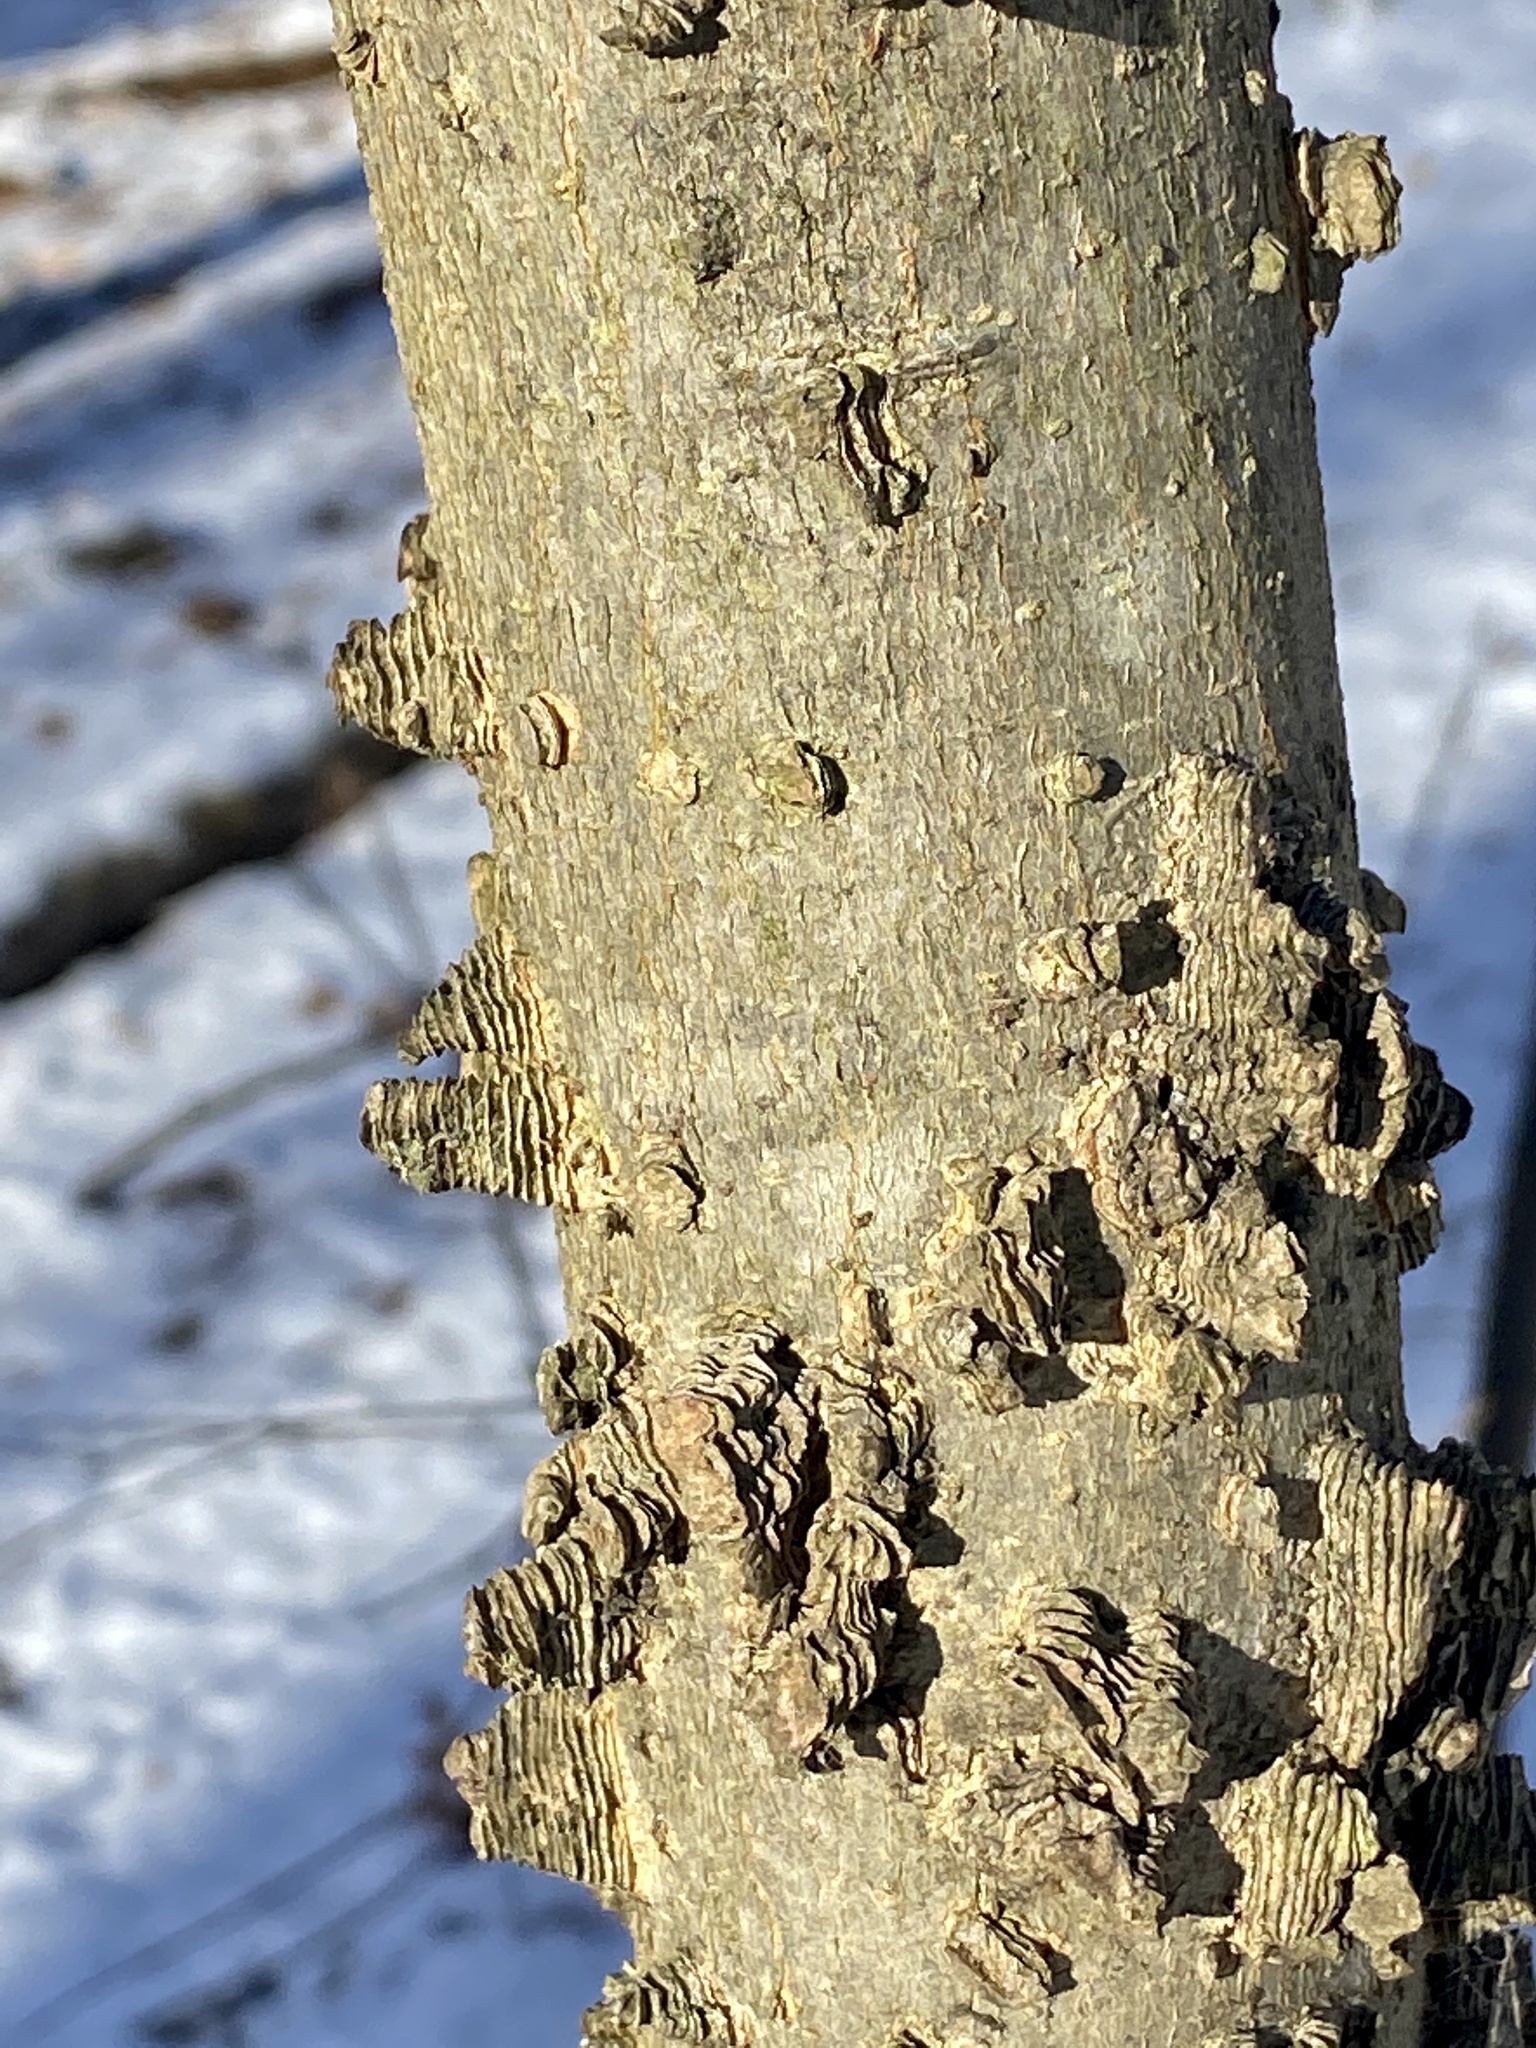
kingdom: Plantae
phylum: Tracheophyta
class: Magnoliopsida
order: Rosales
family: Cannabaceae
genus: Celtis
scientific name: Celtis occidentalis
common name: Common hackberry
